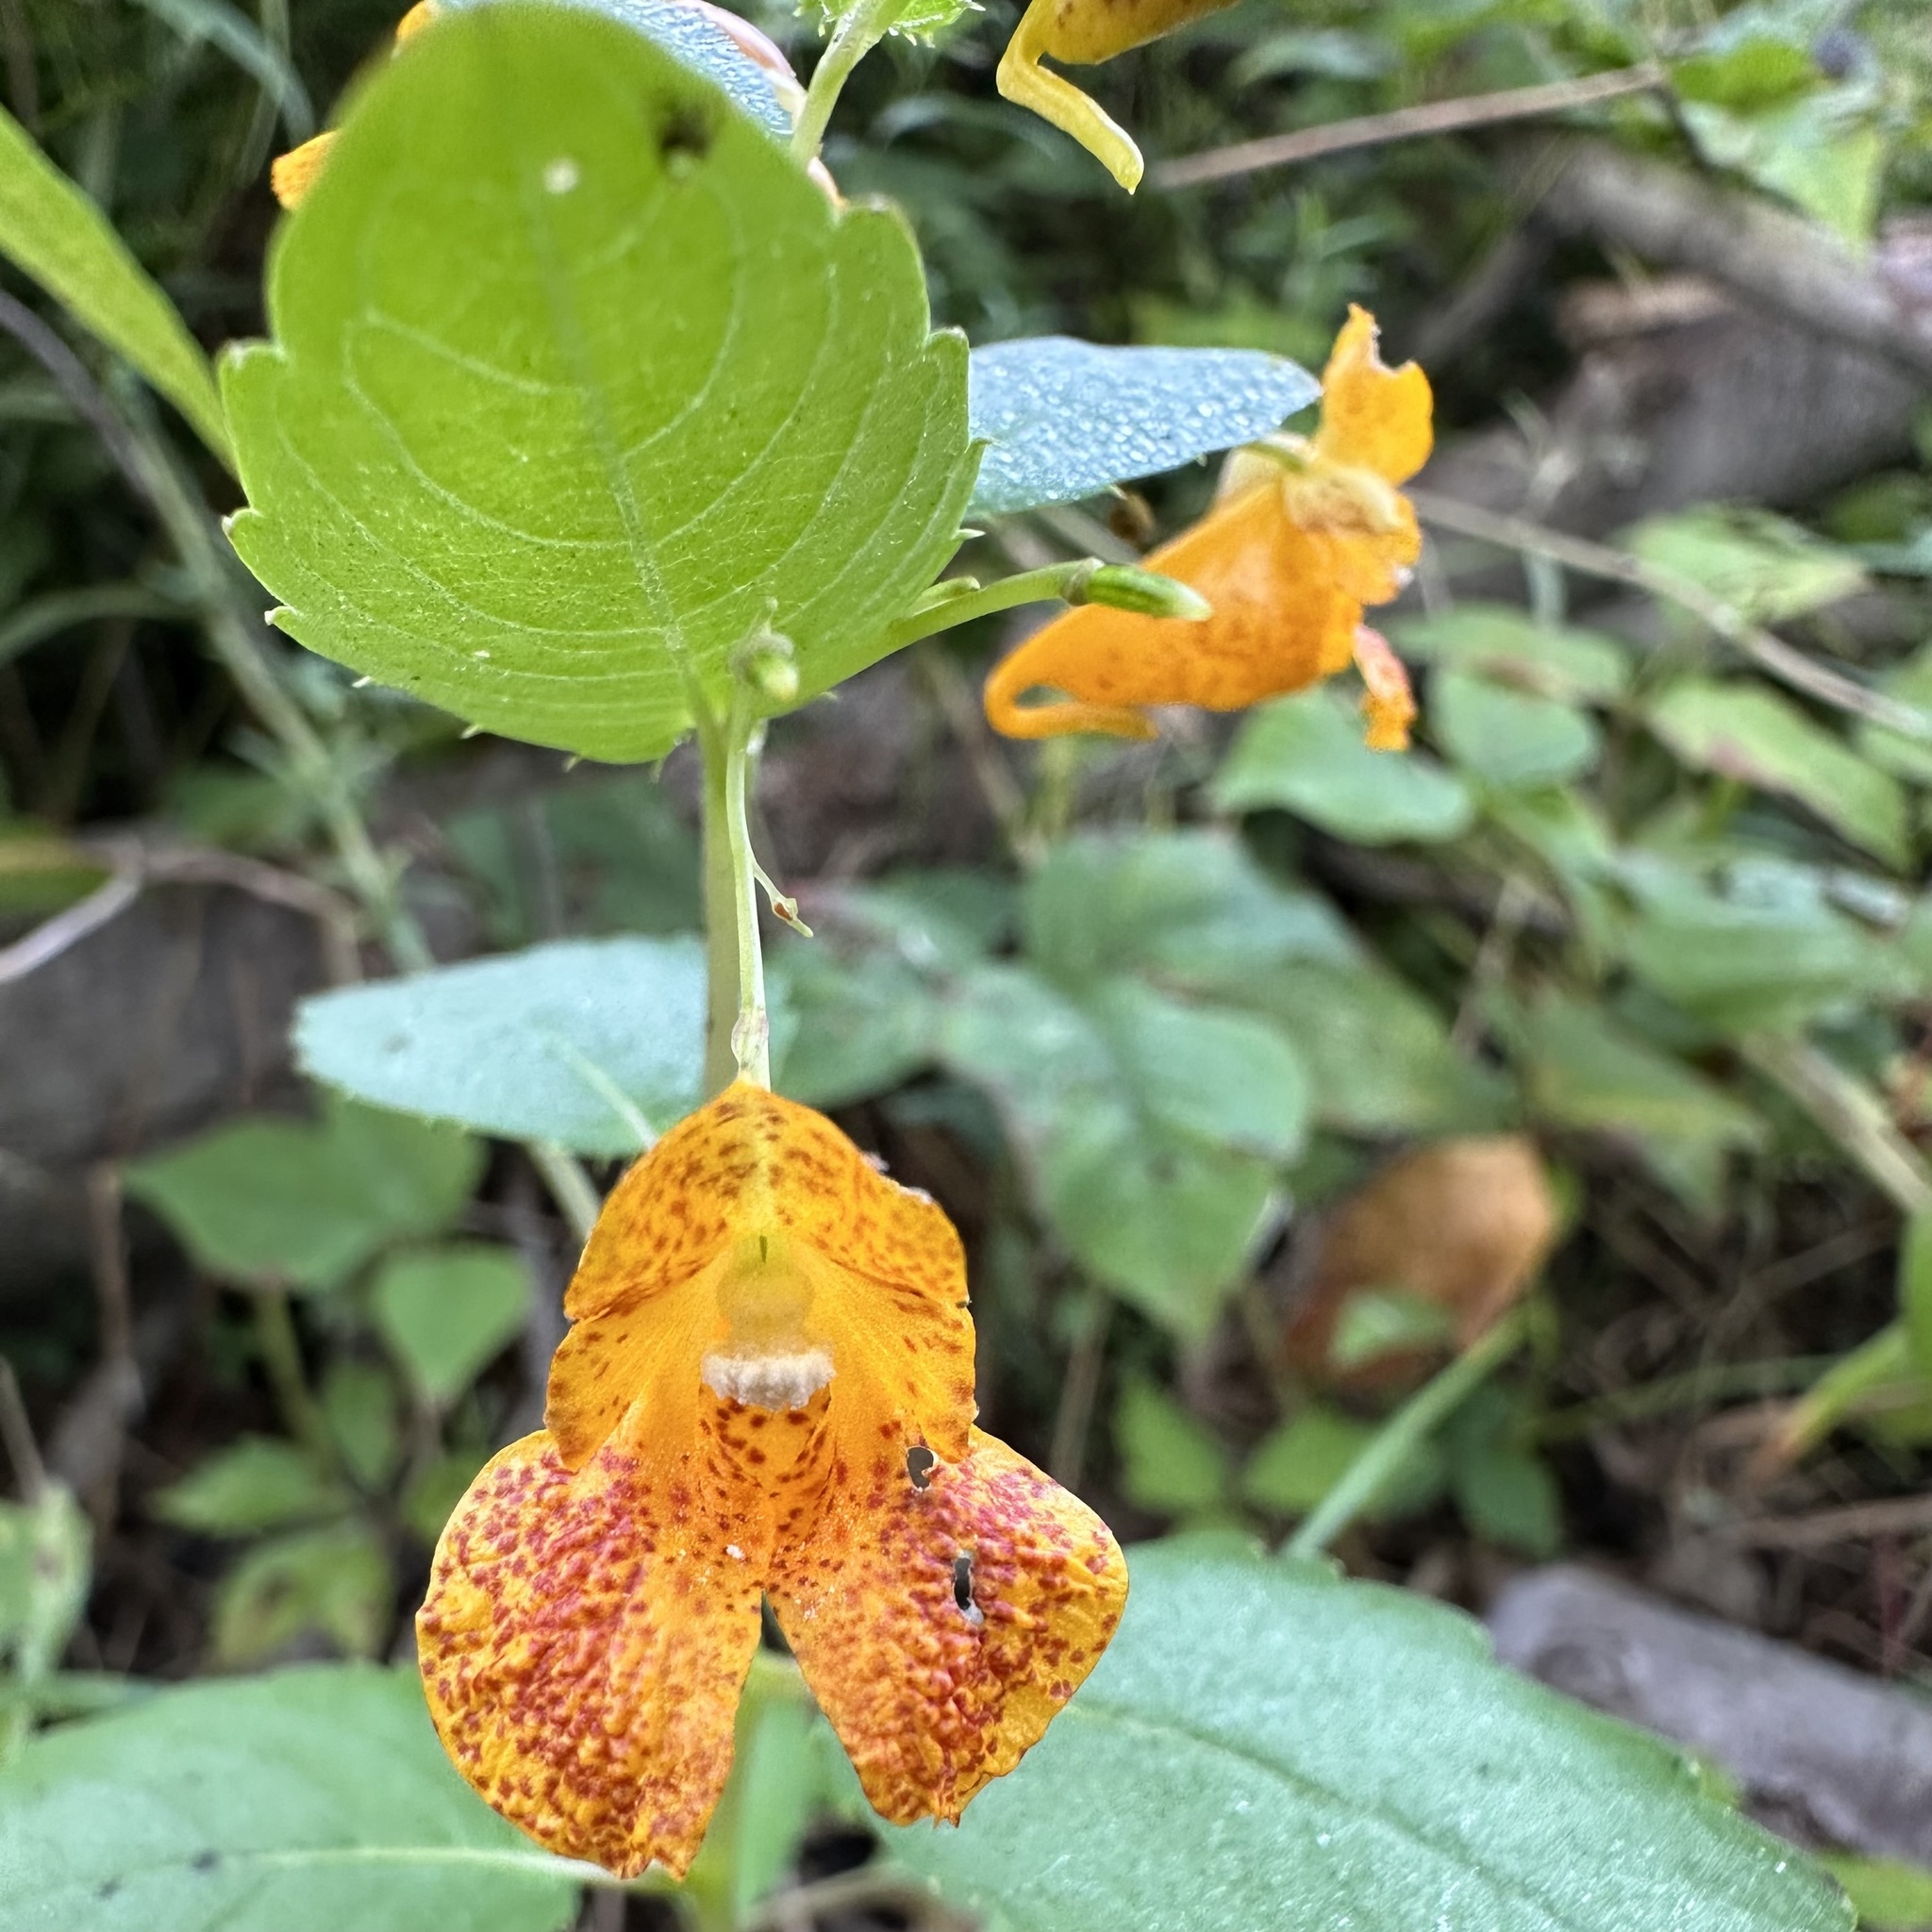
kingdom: Plantae
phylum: Tracheophyta
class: Magnoliopsida
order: Ericales
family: Balsaminaceae
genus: Impatiens
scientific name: Impatiens capensis
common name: Orange balsam
